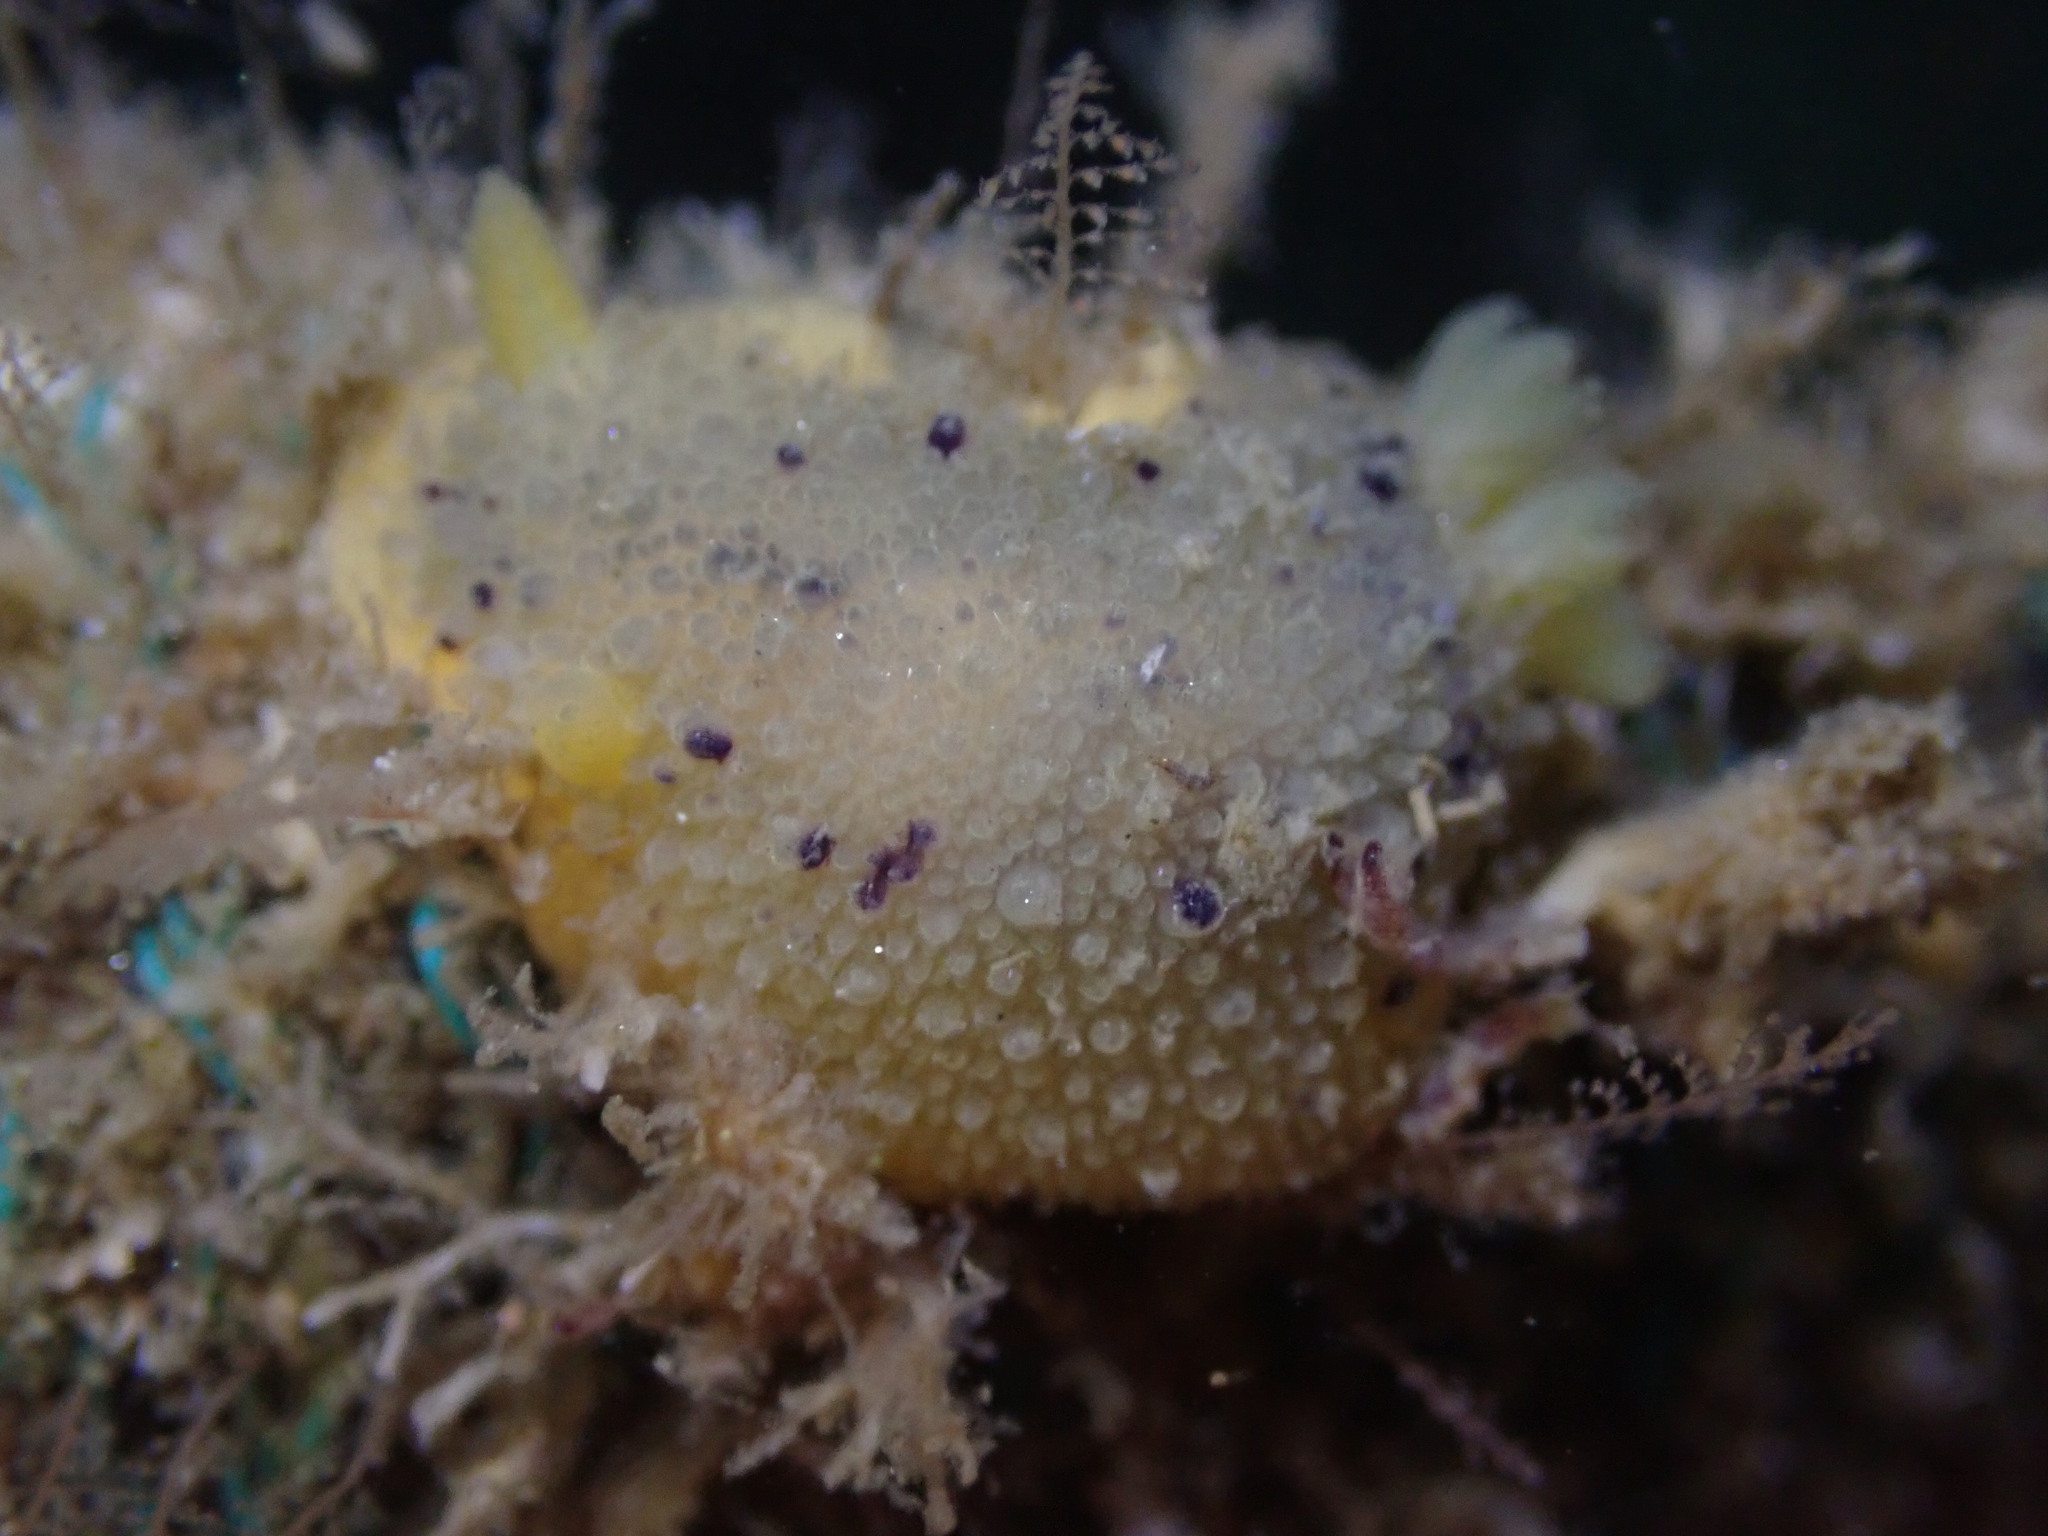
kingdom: Animalia
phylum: Mollusca
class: Gastropoda
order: Nudibranchia
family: Dorididae
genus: Doris
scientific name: Doris montereyensis
